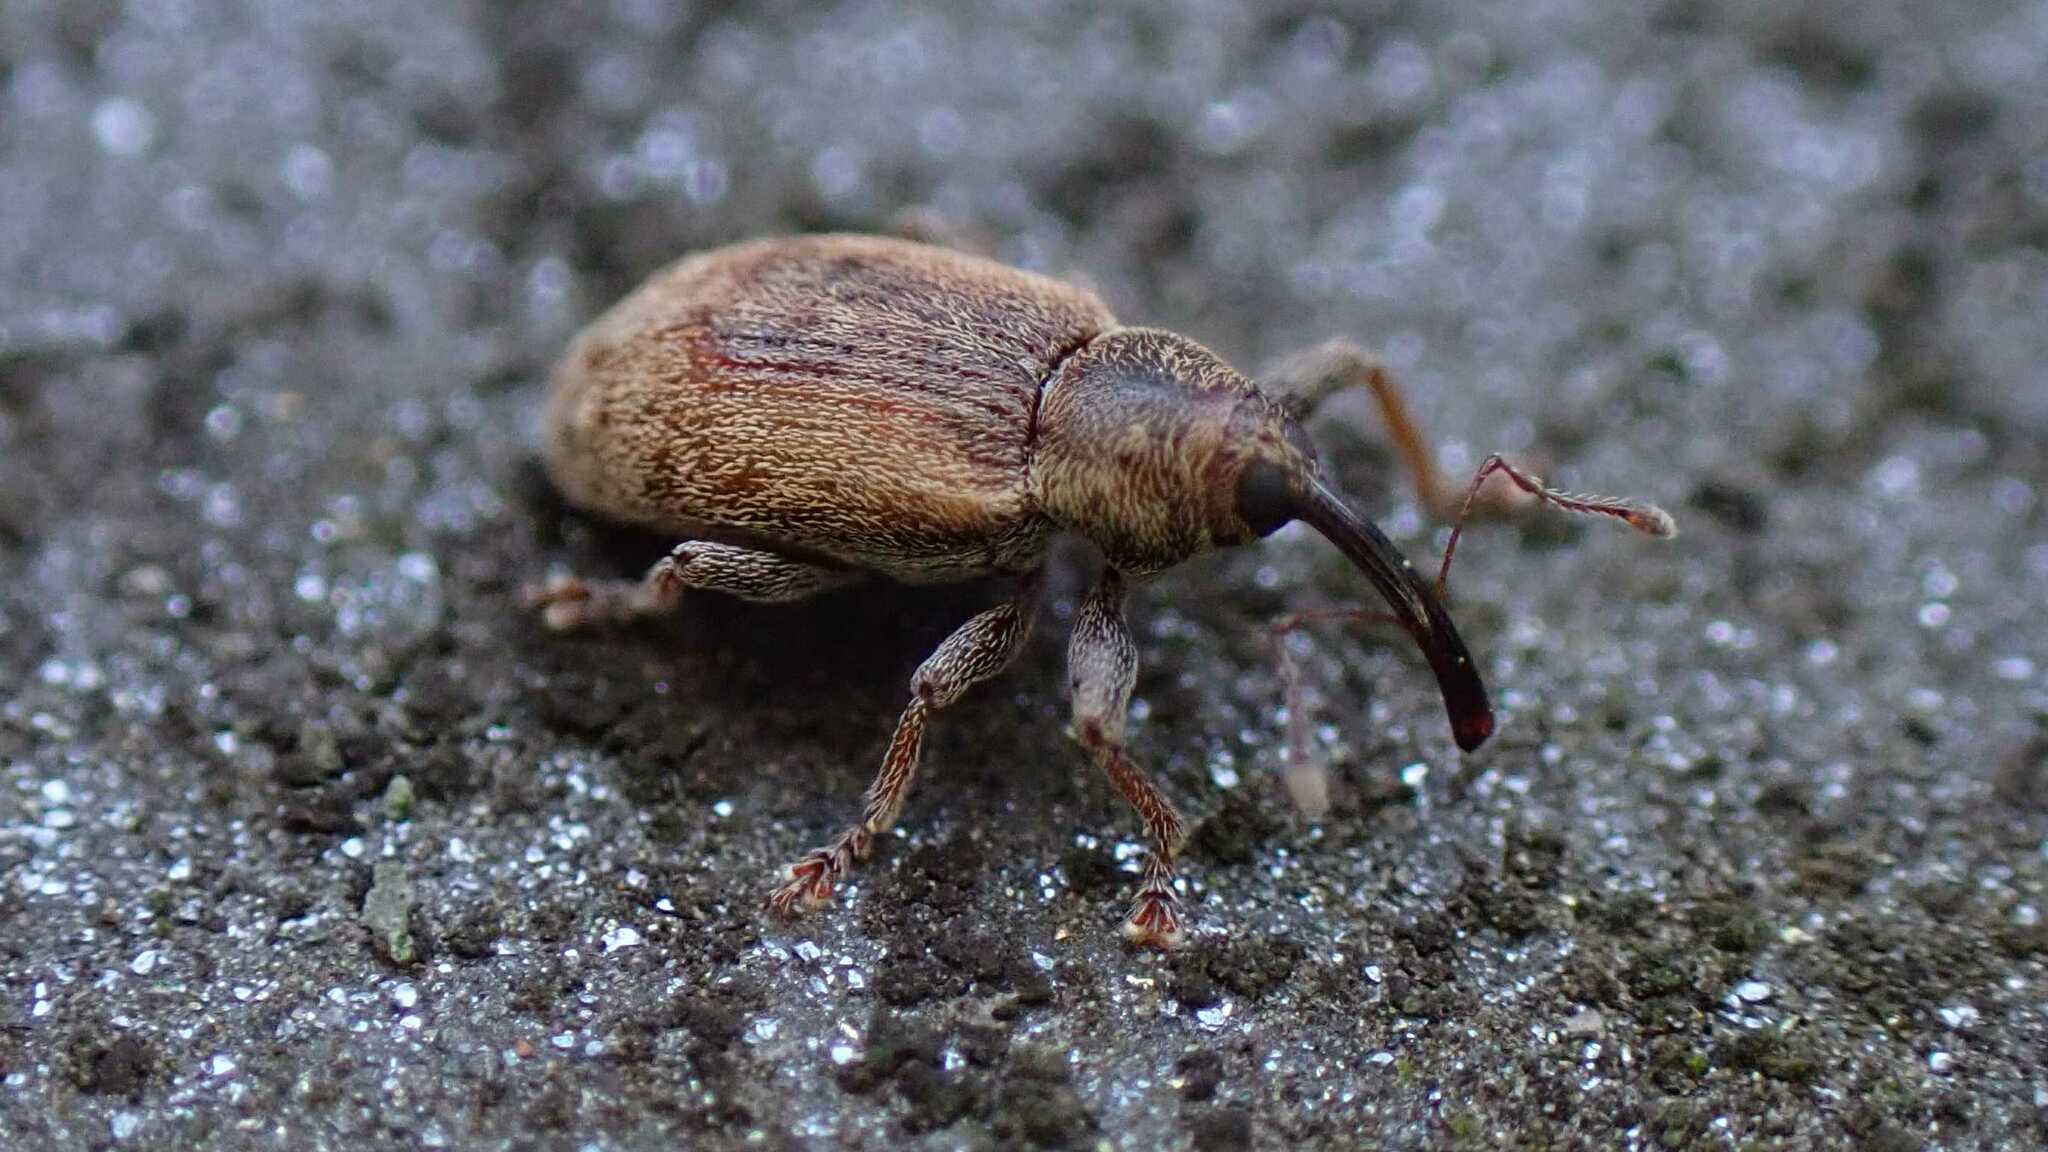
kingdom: Animalia
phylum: Arthropoda
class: Insecta
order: Coleoptera
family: Curculionidae
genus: Dorytomus
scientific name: Dorytomus melanophthalmus
